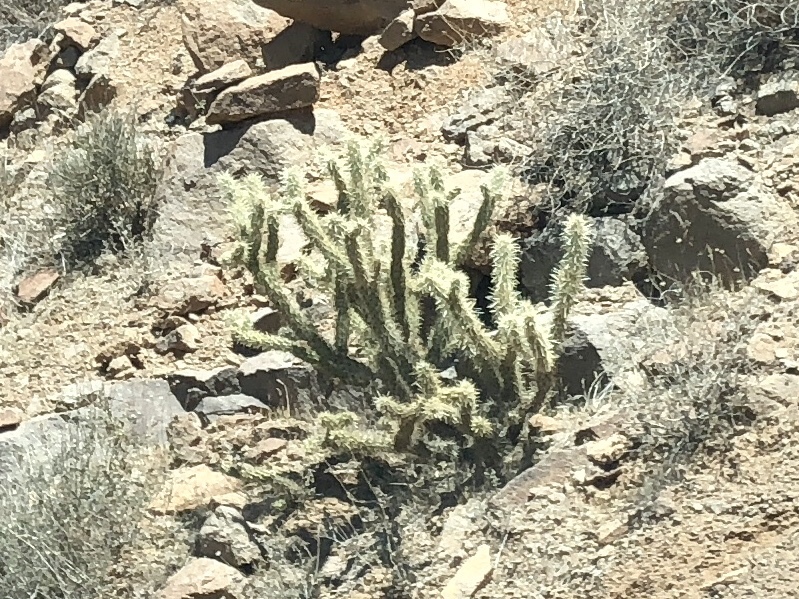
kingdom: Plantae
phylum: Tracheophyta
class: Magnoliopsida
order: Caryophyllales
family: Cactaceae
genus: Cylindropuntia
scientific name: Cylindropuntia acanthocarpa
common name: Buckhorn cholla
